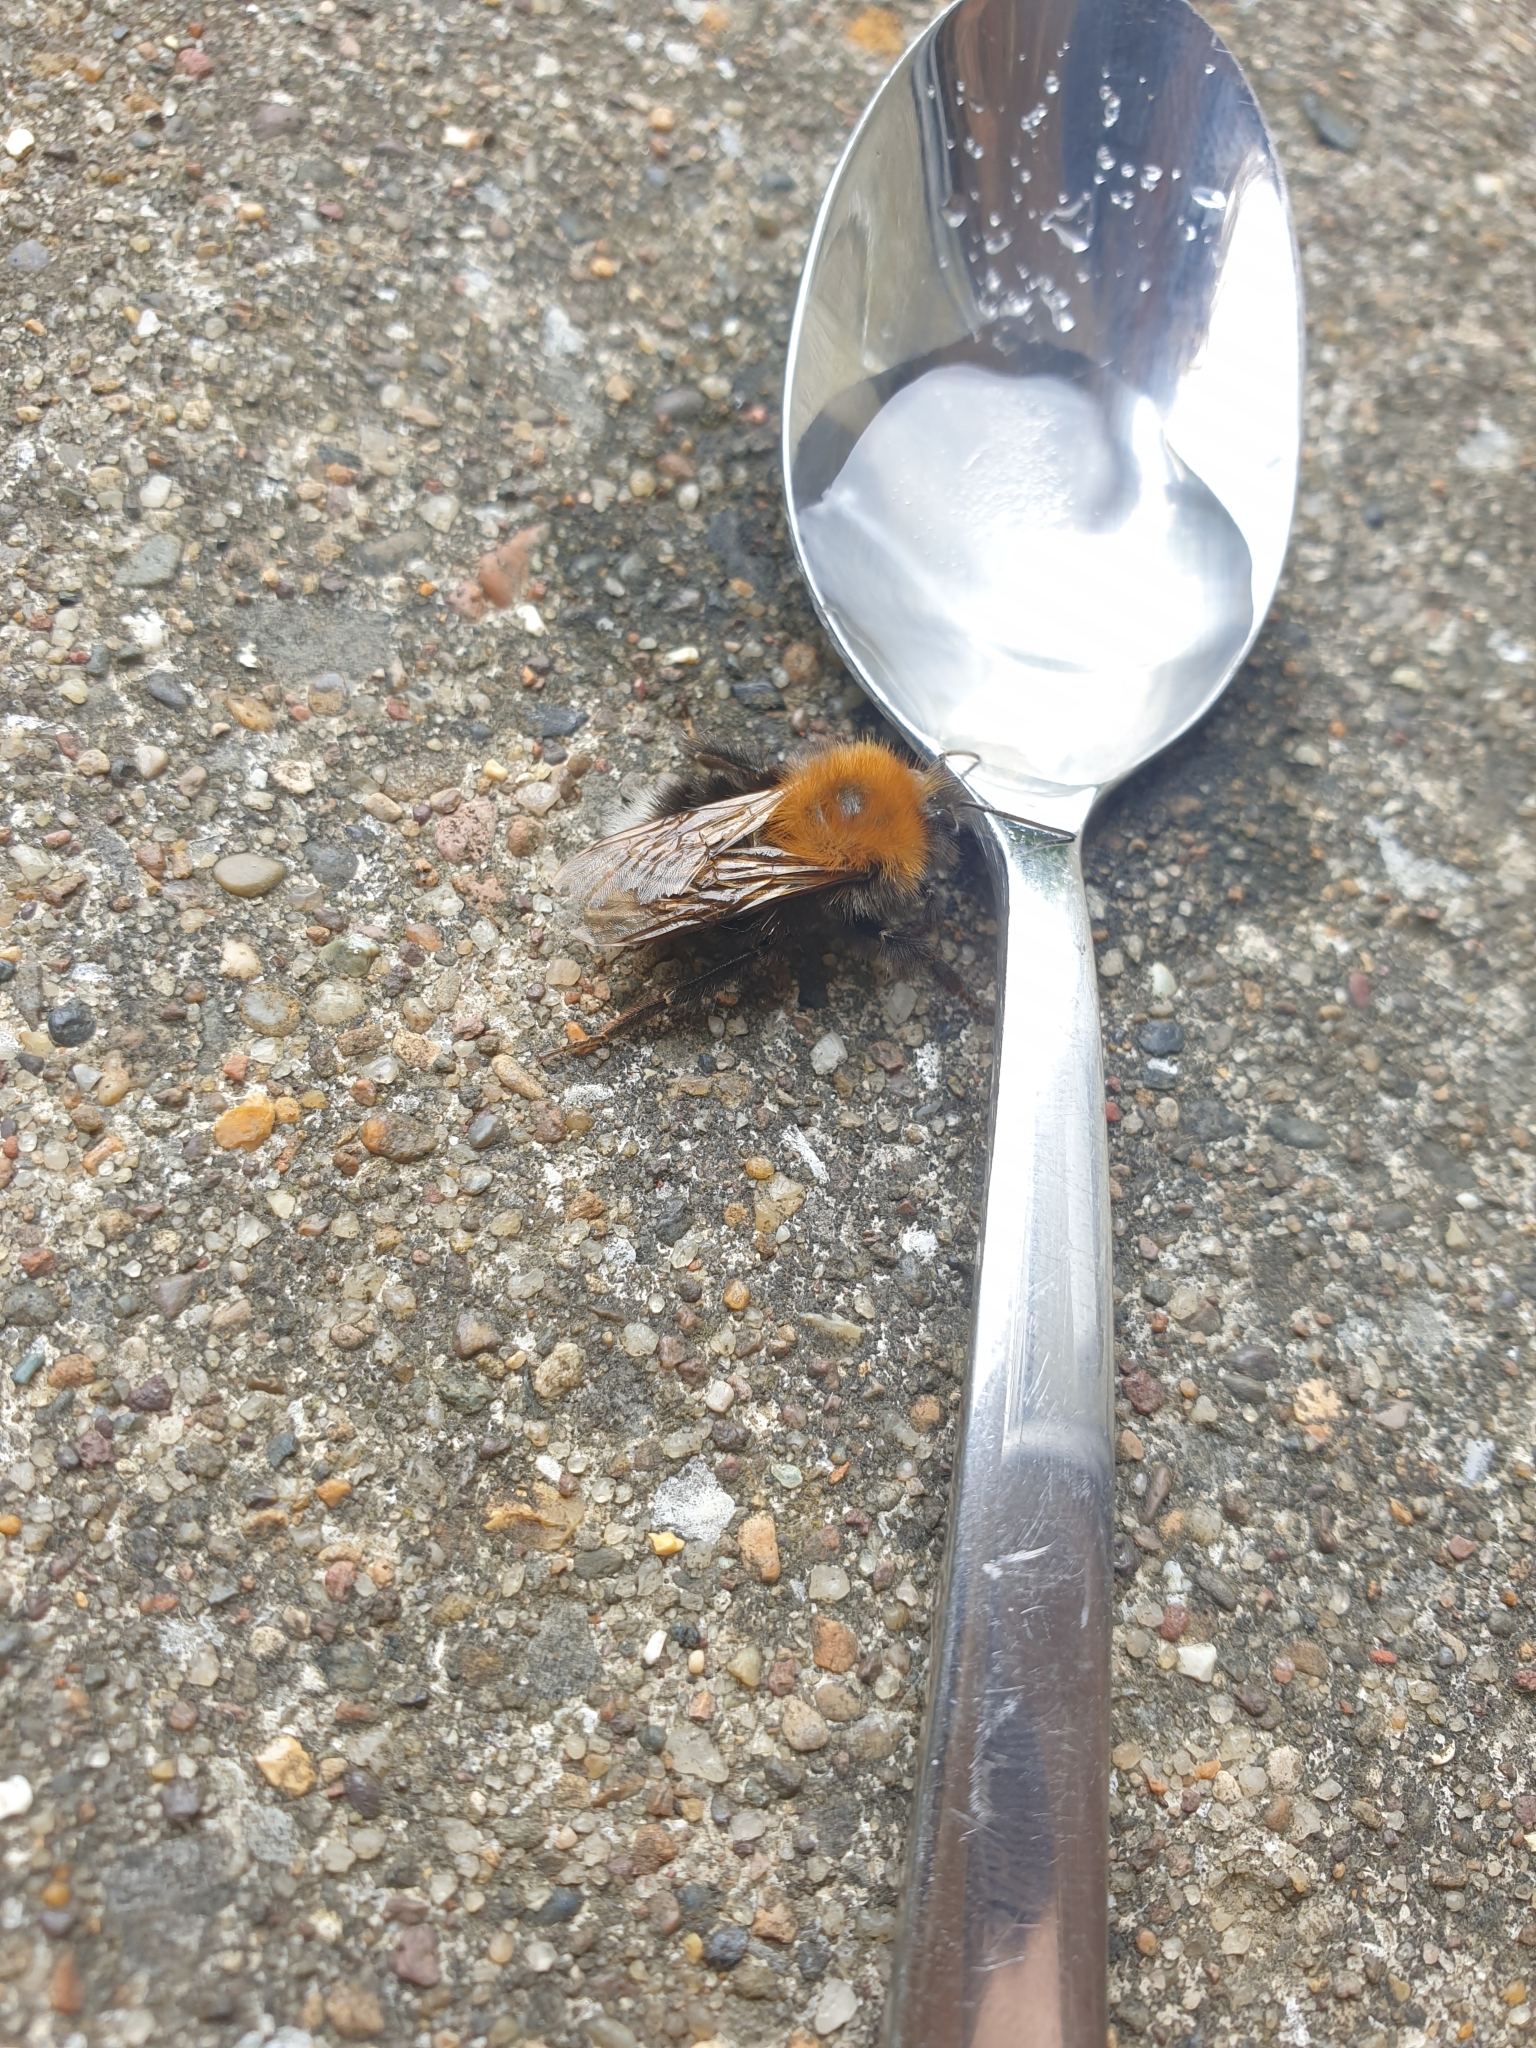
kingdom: Animalia
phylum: Arthropoda
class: Insecta
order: Hymenoptera
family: Apidae
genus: Bombus
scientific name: Bombus hypnorum
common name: New garden bumblebee
